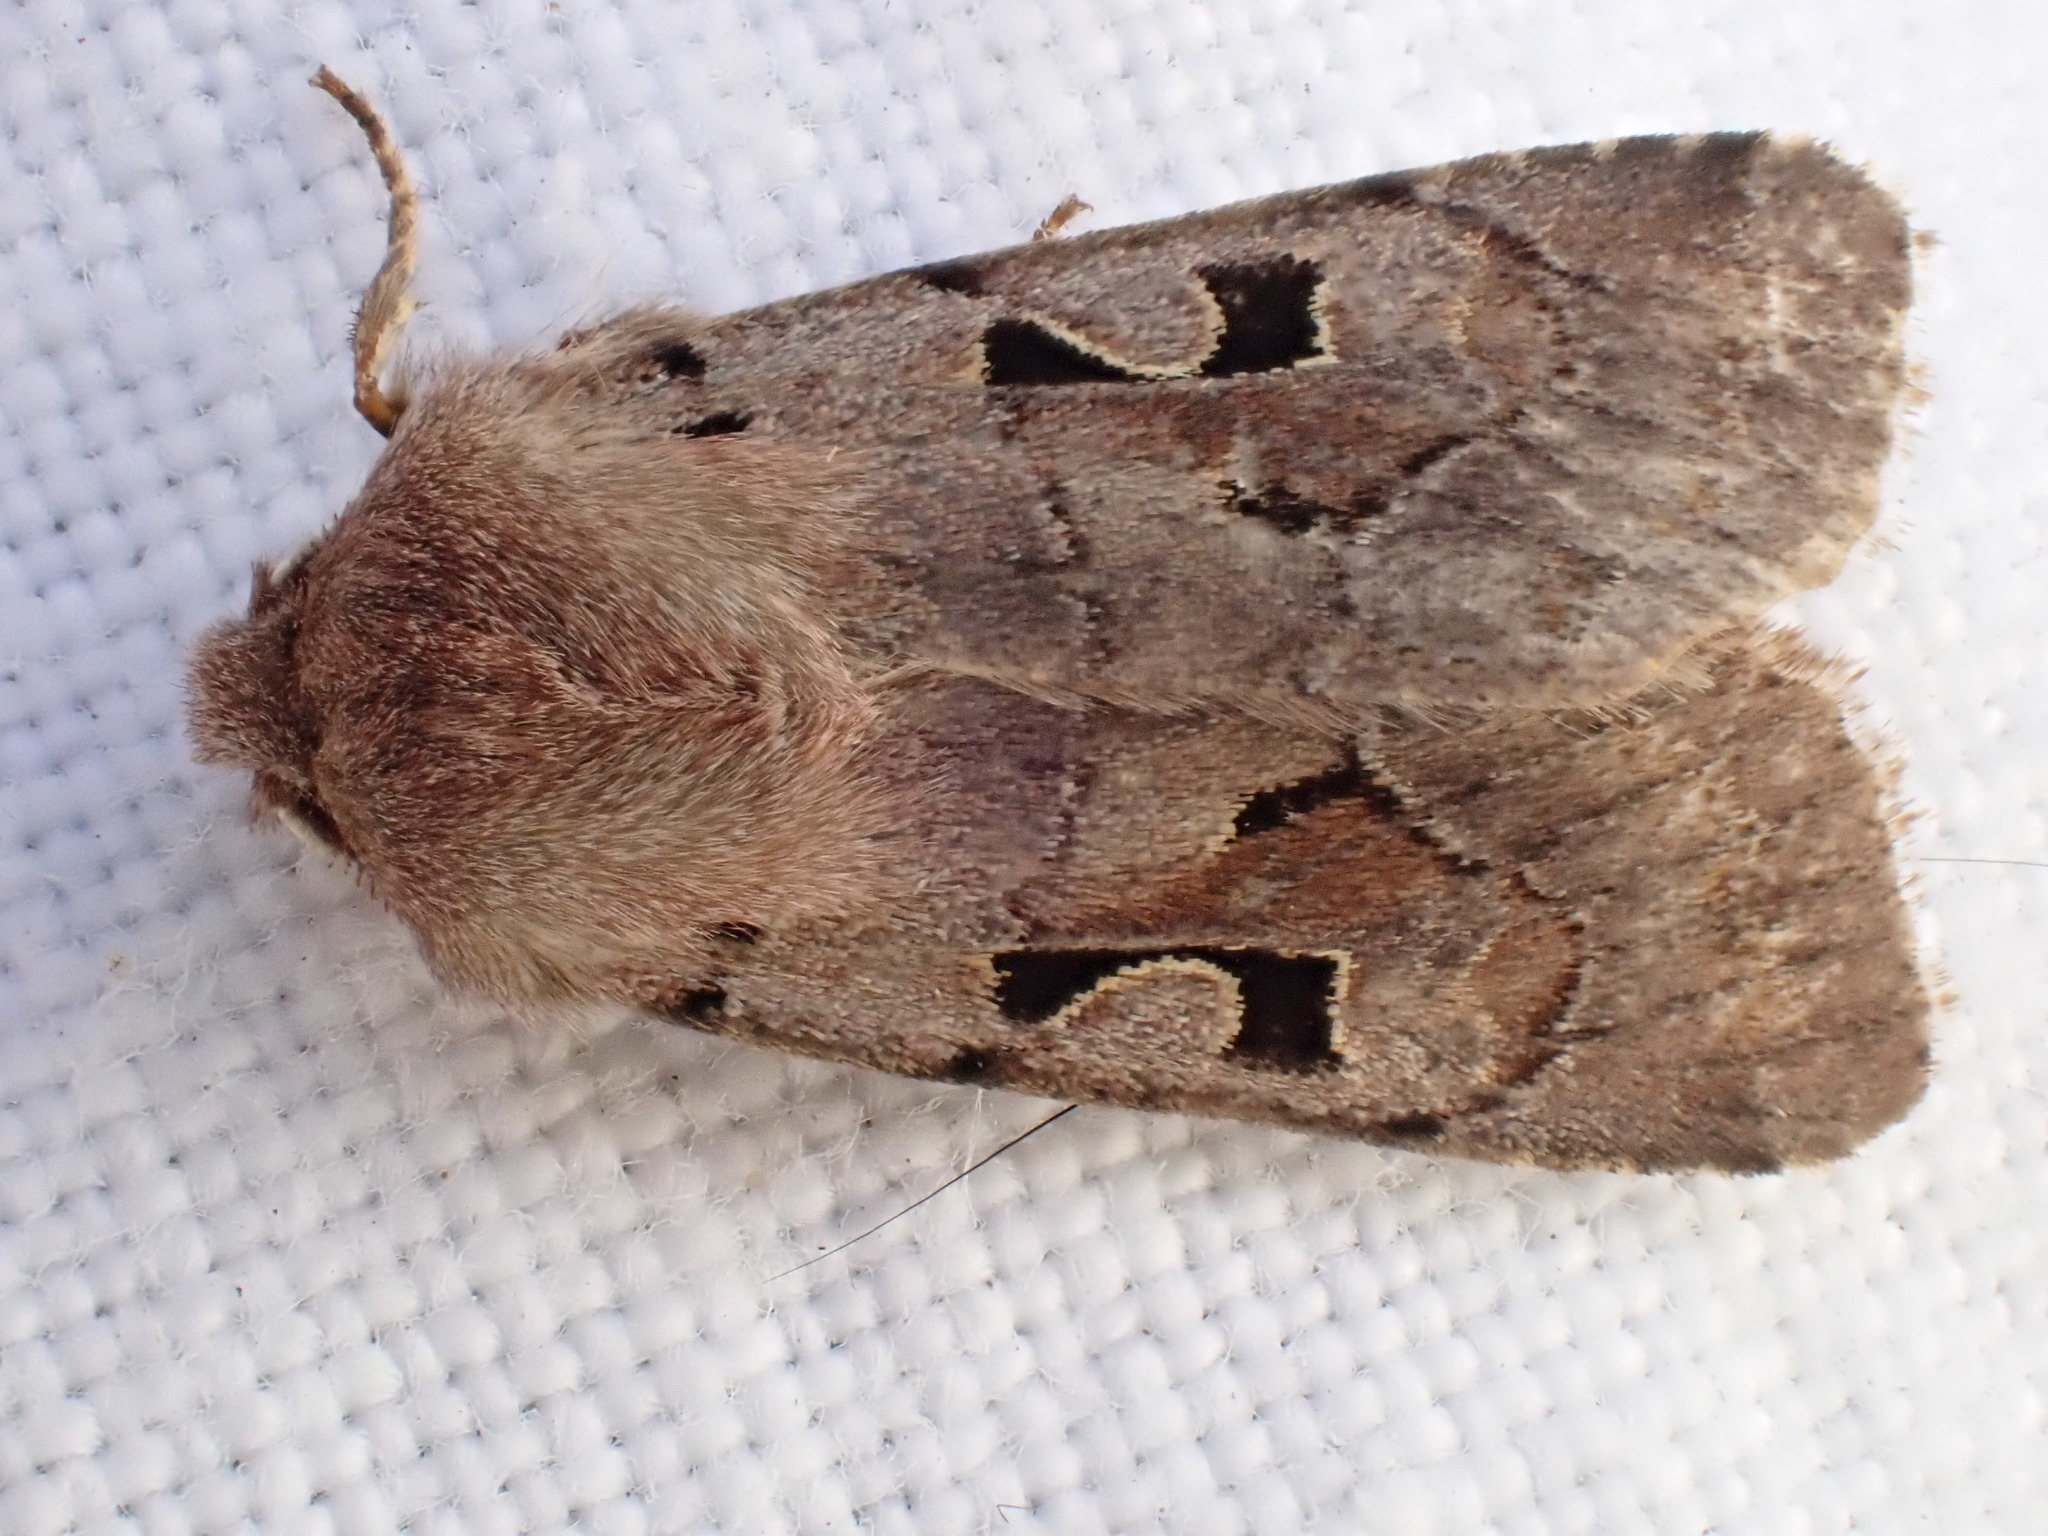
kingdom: Animalia
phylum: Arthropoda
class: Insecta
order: Lepidoptera
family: Noctuidae
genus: Orthosia
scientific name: Orthosia gothica
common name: Hebrew character
